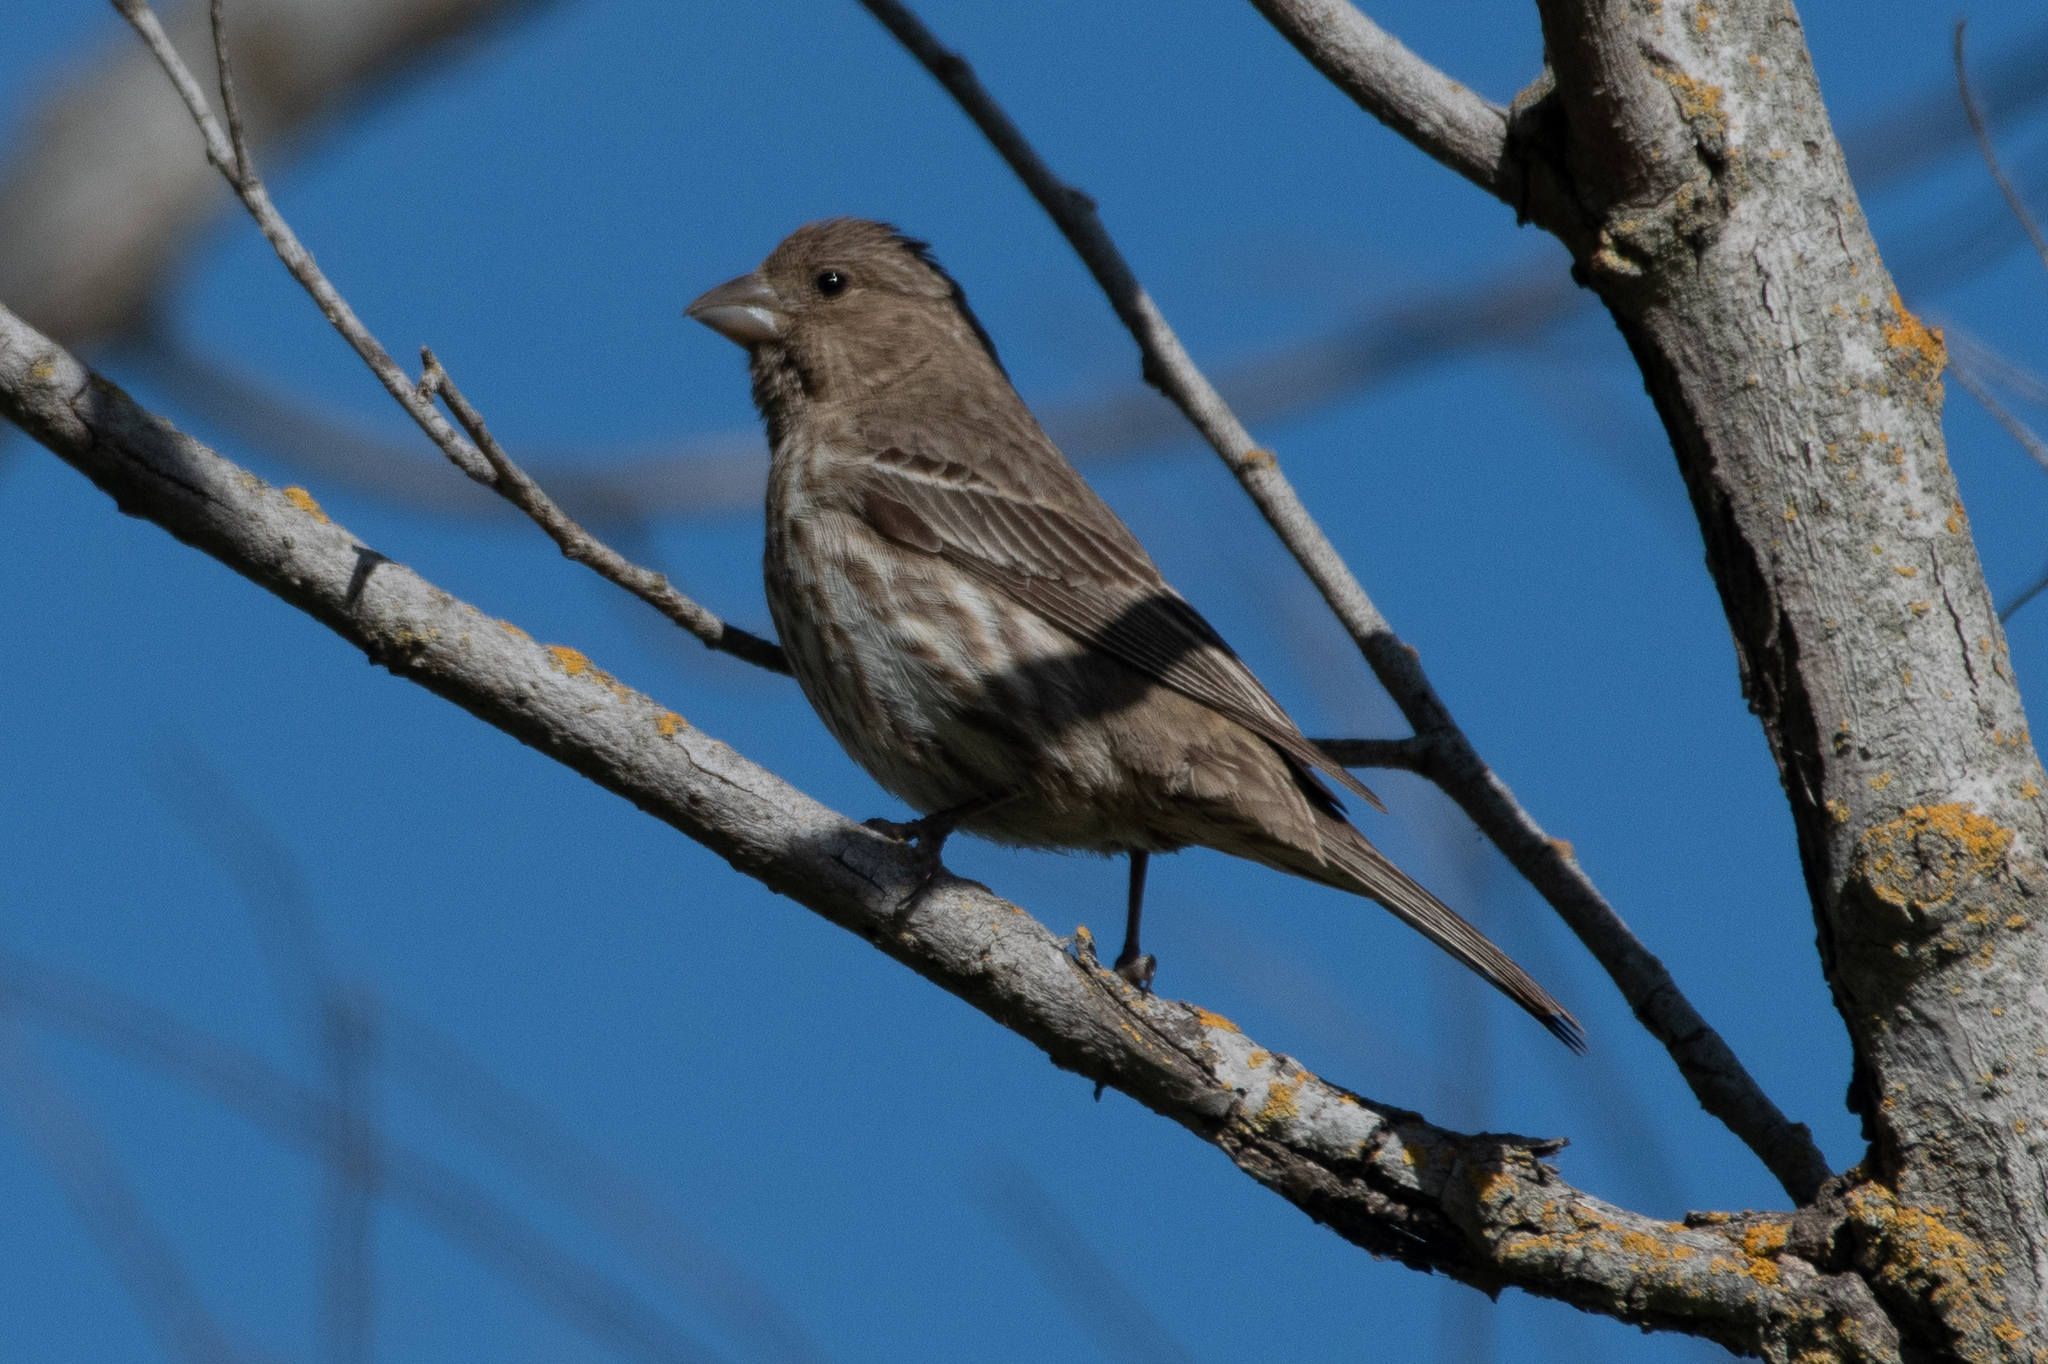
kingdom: Animalia
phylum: Chordata
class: Aves
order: Passeriformes
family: Fringillidae
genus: Haemorhous
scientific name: Haemorhous mexicanus
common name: House finch
